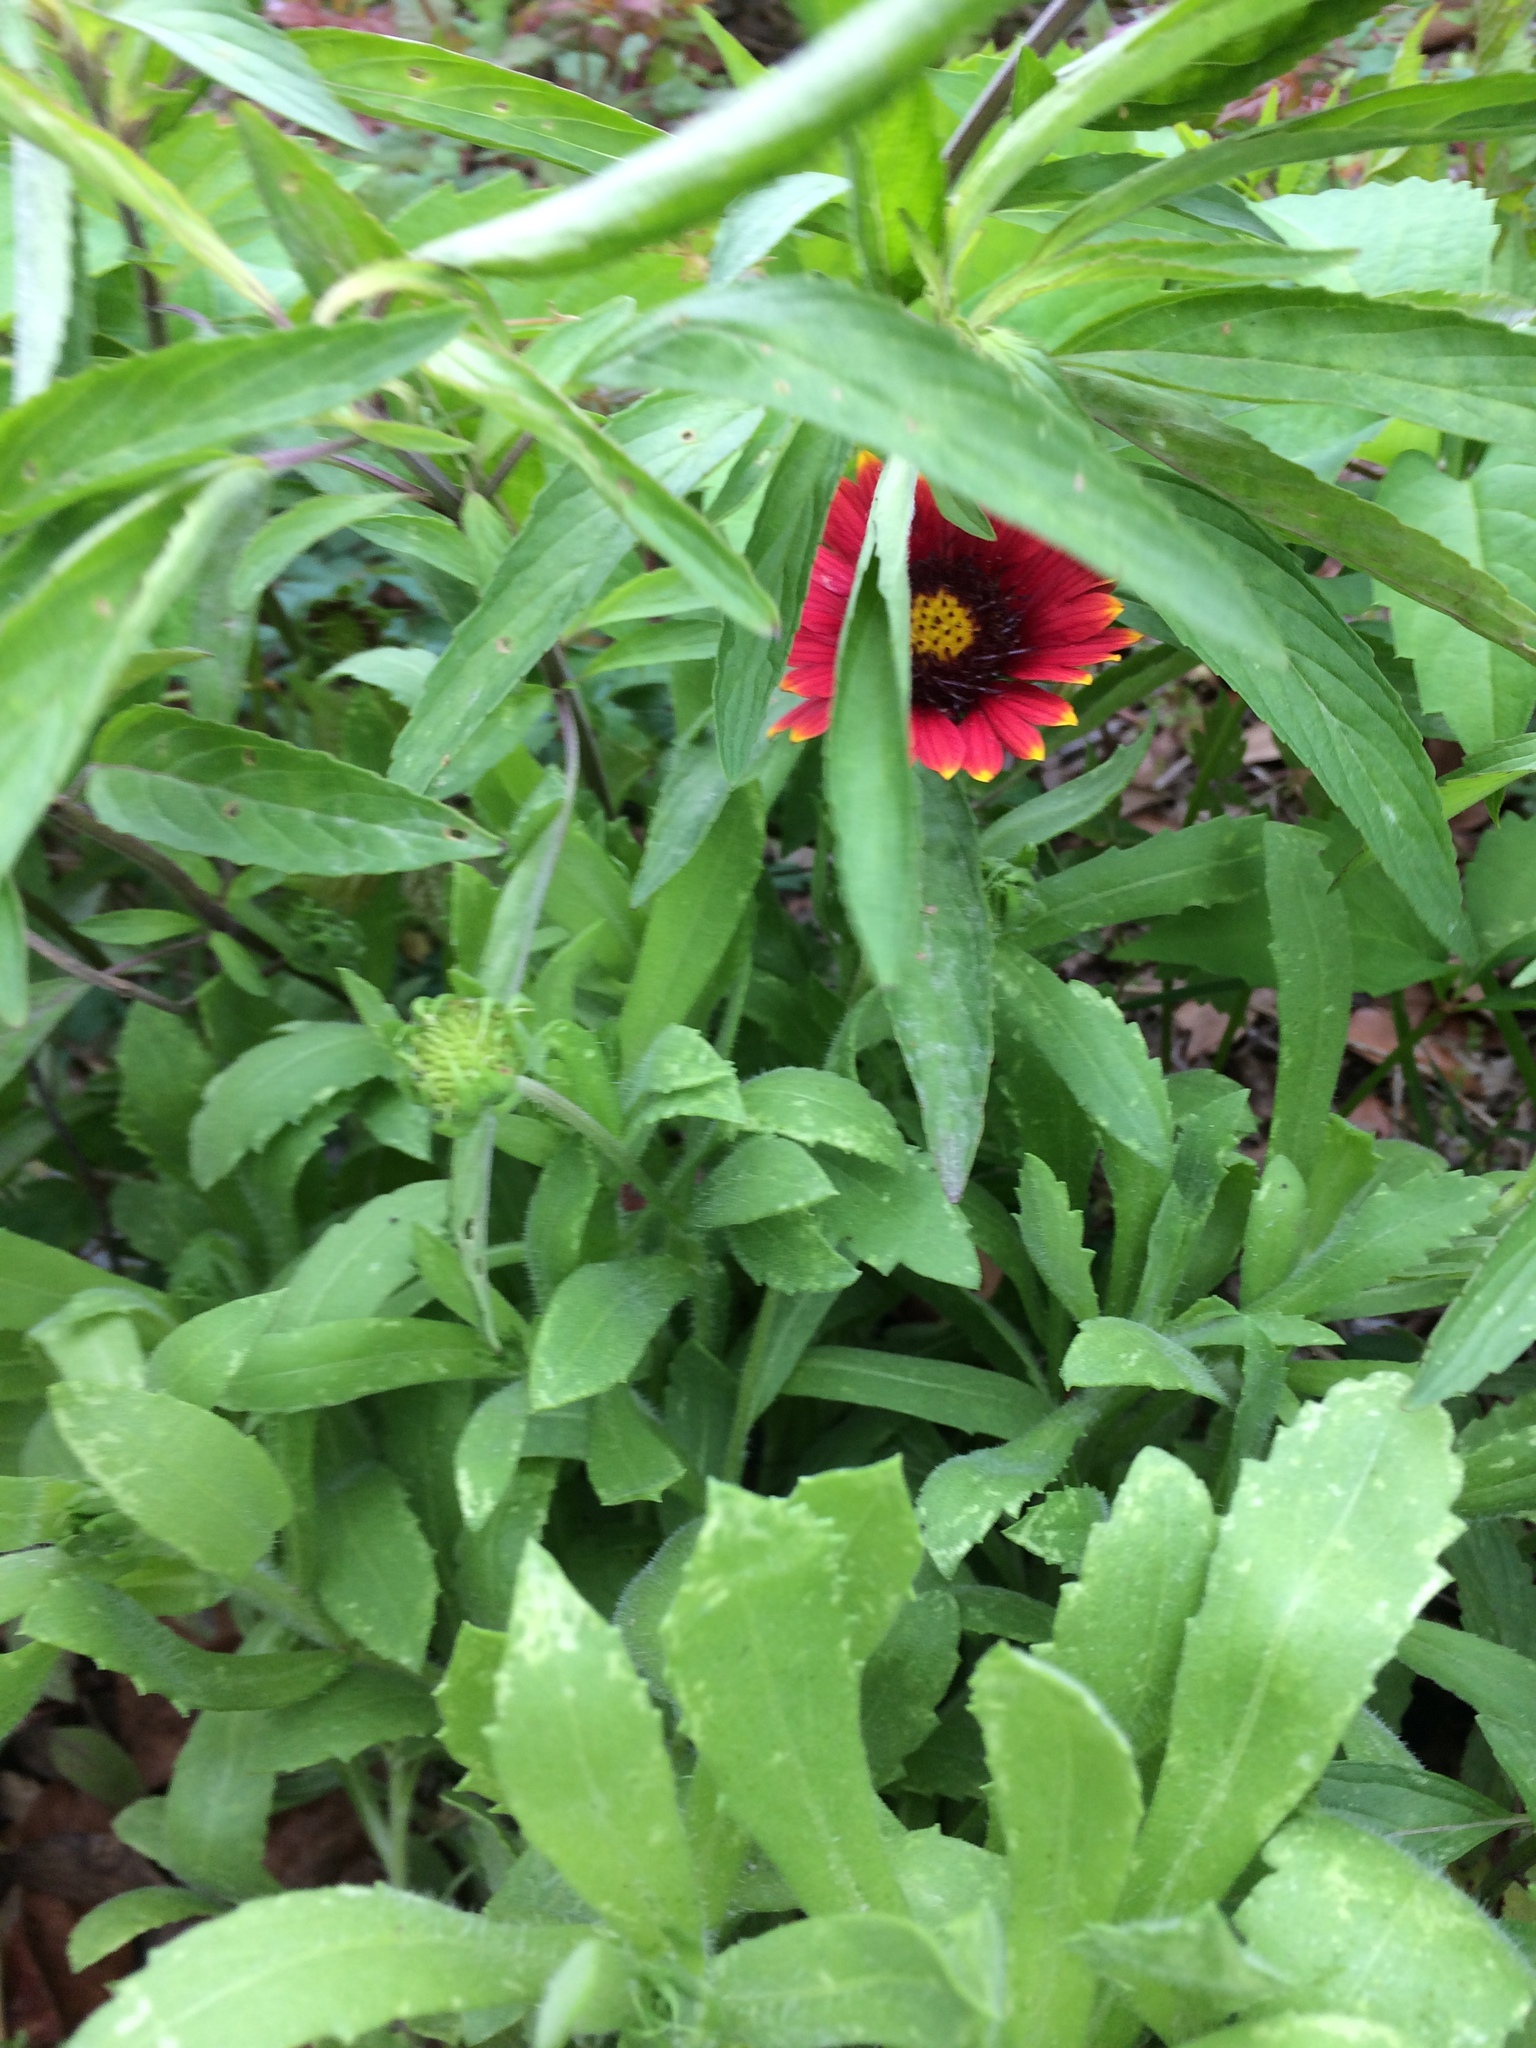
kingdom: Plantae
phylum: Tracheophyta
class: Magnoliopsida
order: Asterales
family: Asteraceae
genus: Gaillardia
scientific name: Gaillardia pulchella
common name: Firewheel
